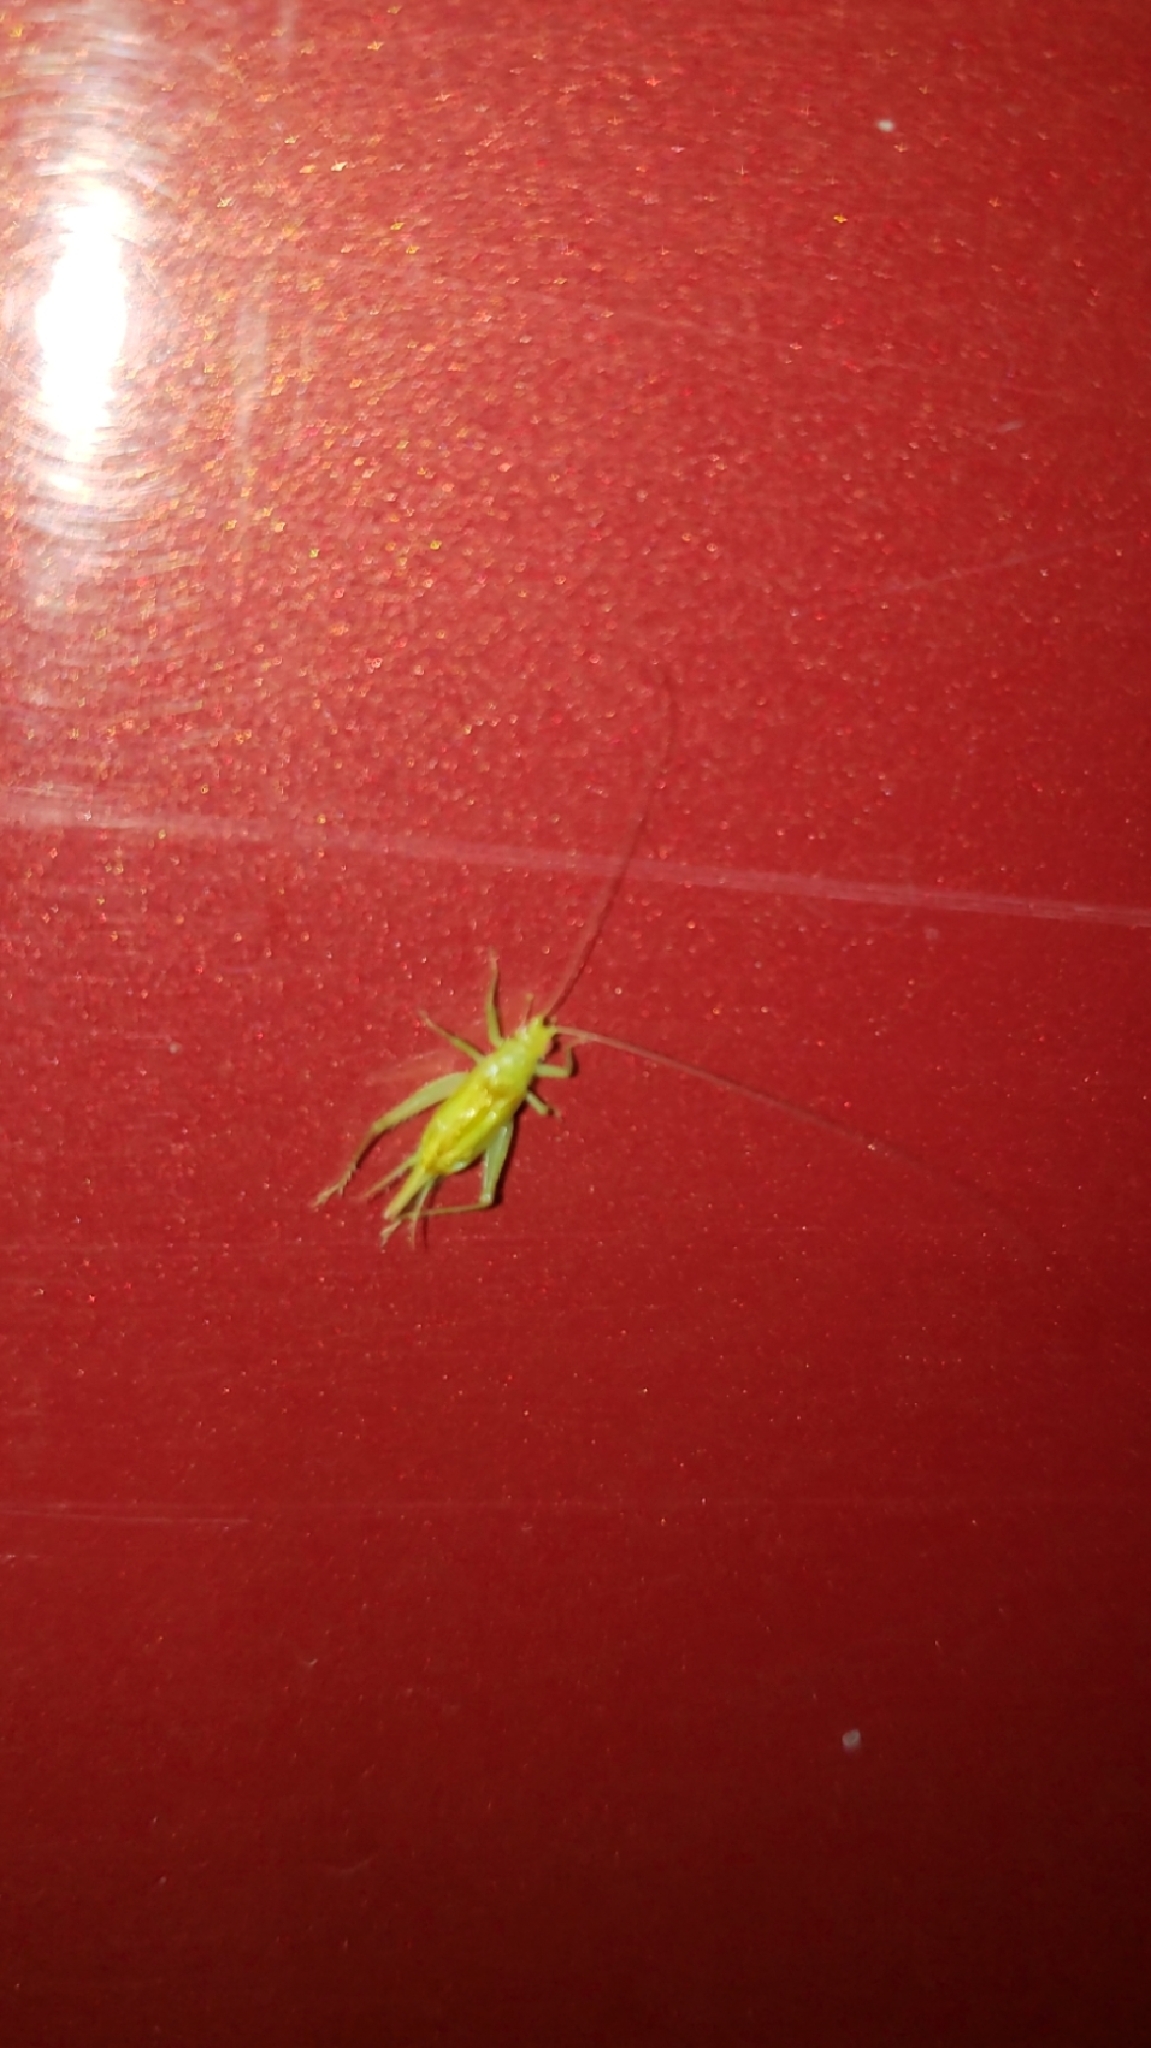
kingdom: Animalia
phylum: Arthropoda
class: Insecta
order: Orthoptera
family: Trigonidiidae
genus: Cyrtoxipha
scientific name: Cyrtoxipha columbiana
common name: Columbian trig
